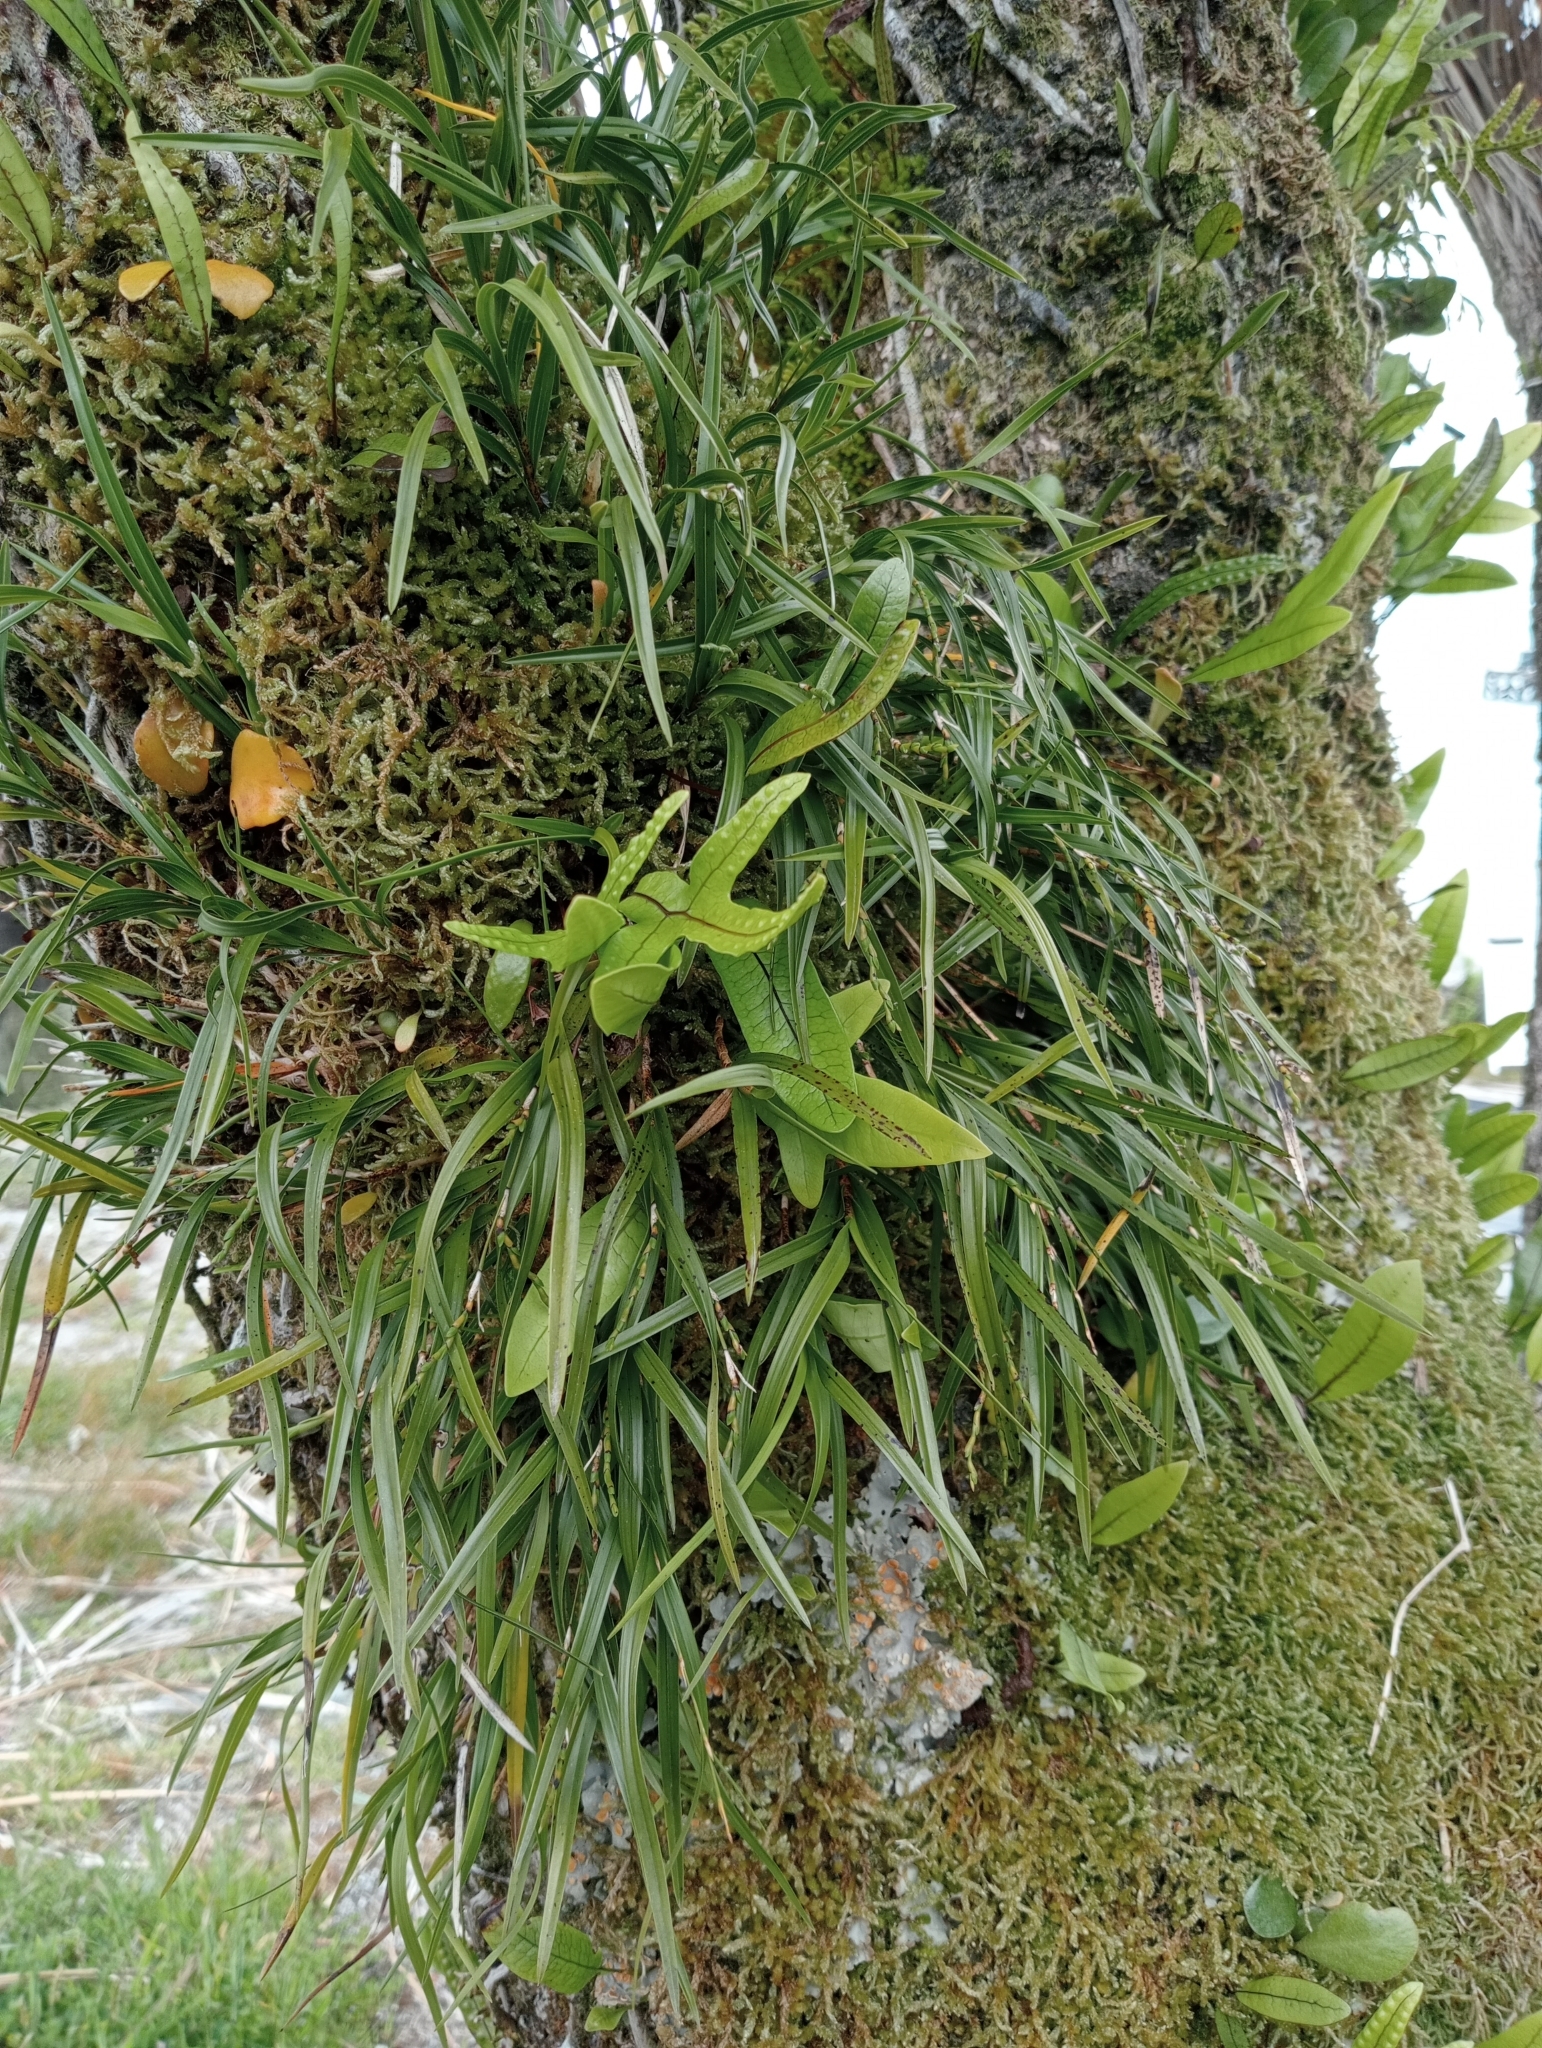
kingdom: Plantae
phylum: Tracheophyta
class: Liliopsida
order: Asparagales
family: Orchidaceae
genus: Earina
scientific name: Earina autumnalis
